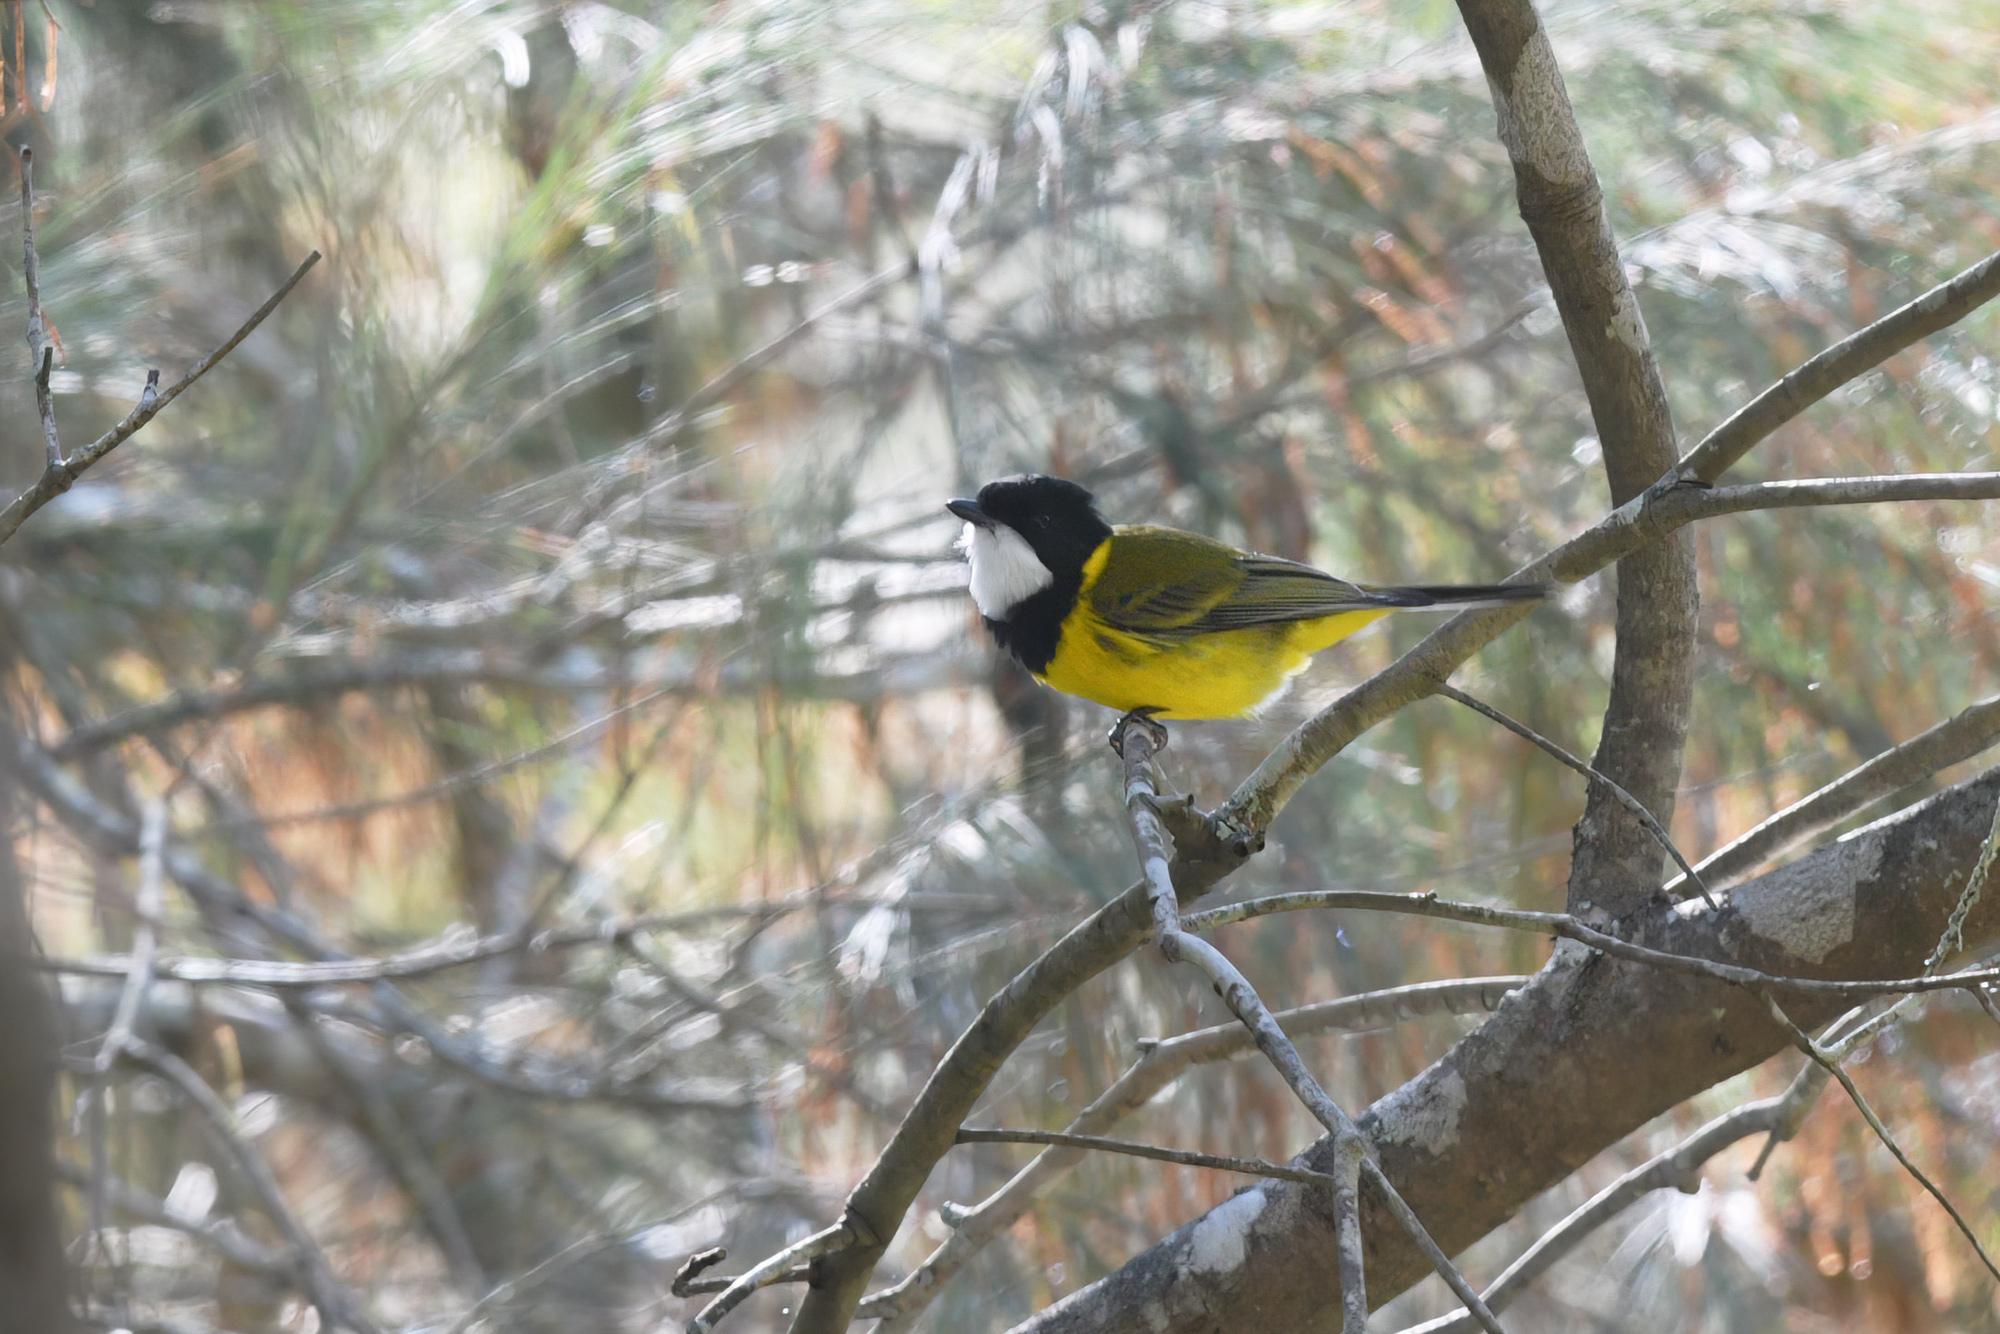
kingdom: Animalia
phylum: Chordata
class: Aves
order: Passeriformes
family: Pachycephalidae
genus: Pachycephala
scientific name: Pachycephala pectoralis
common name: Australian golden whistler
